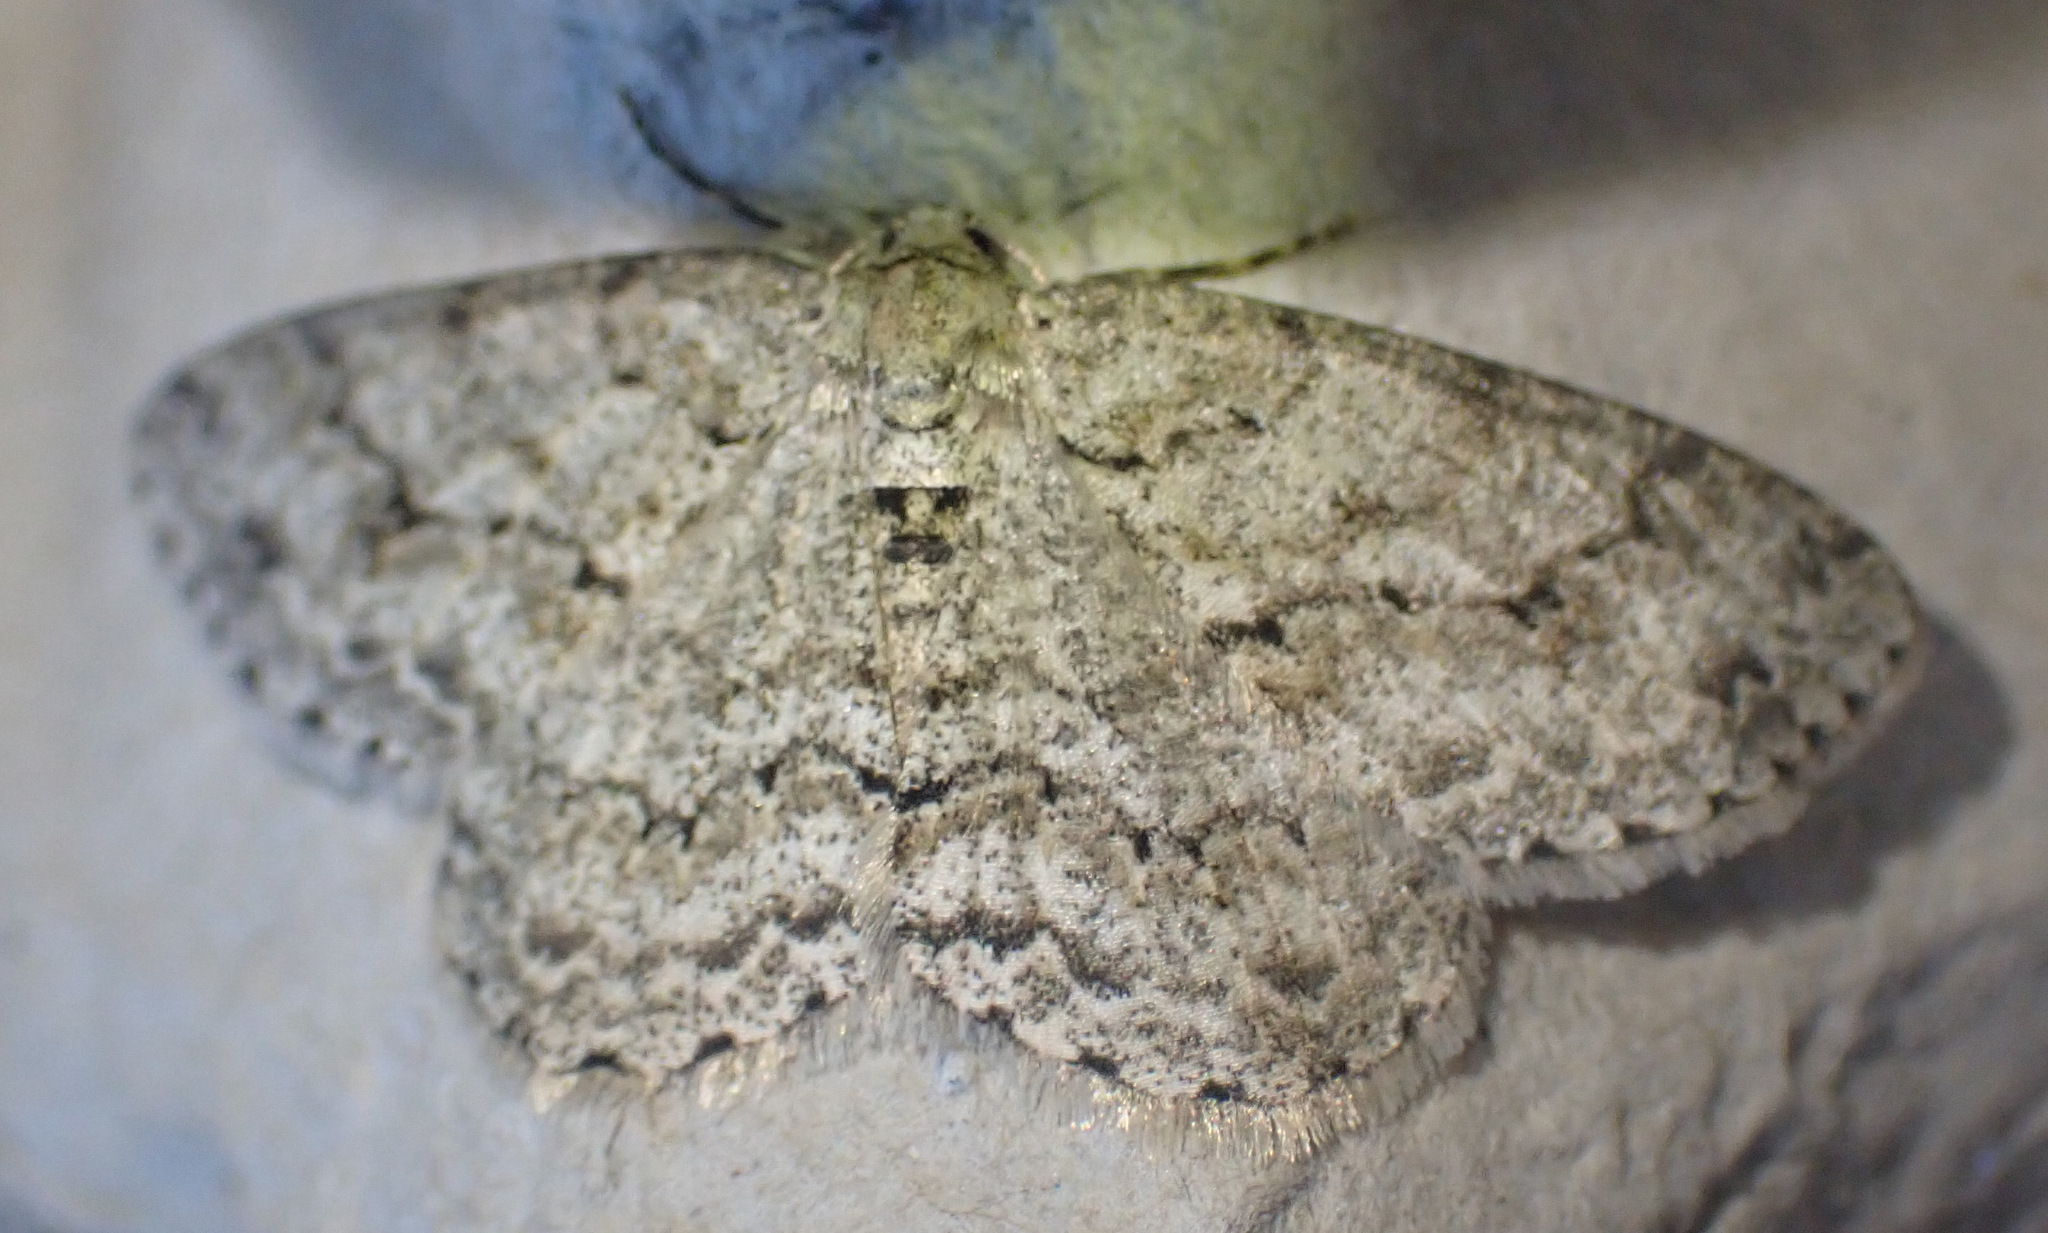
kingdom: Animalia
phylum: Arthropoda
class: Insecta
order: Lepidoptera
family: Geometridae
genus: Ectropis
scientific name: Ectropis crepuscularia
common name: Engrailed
